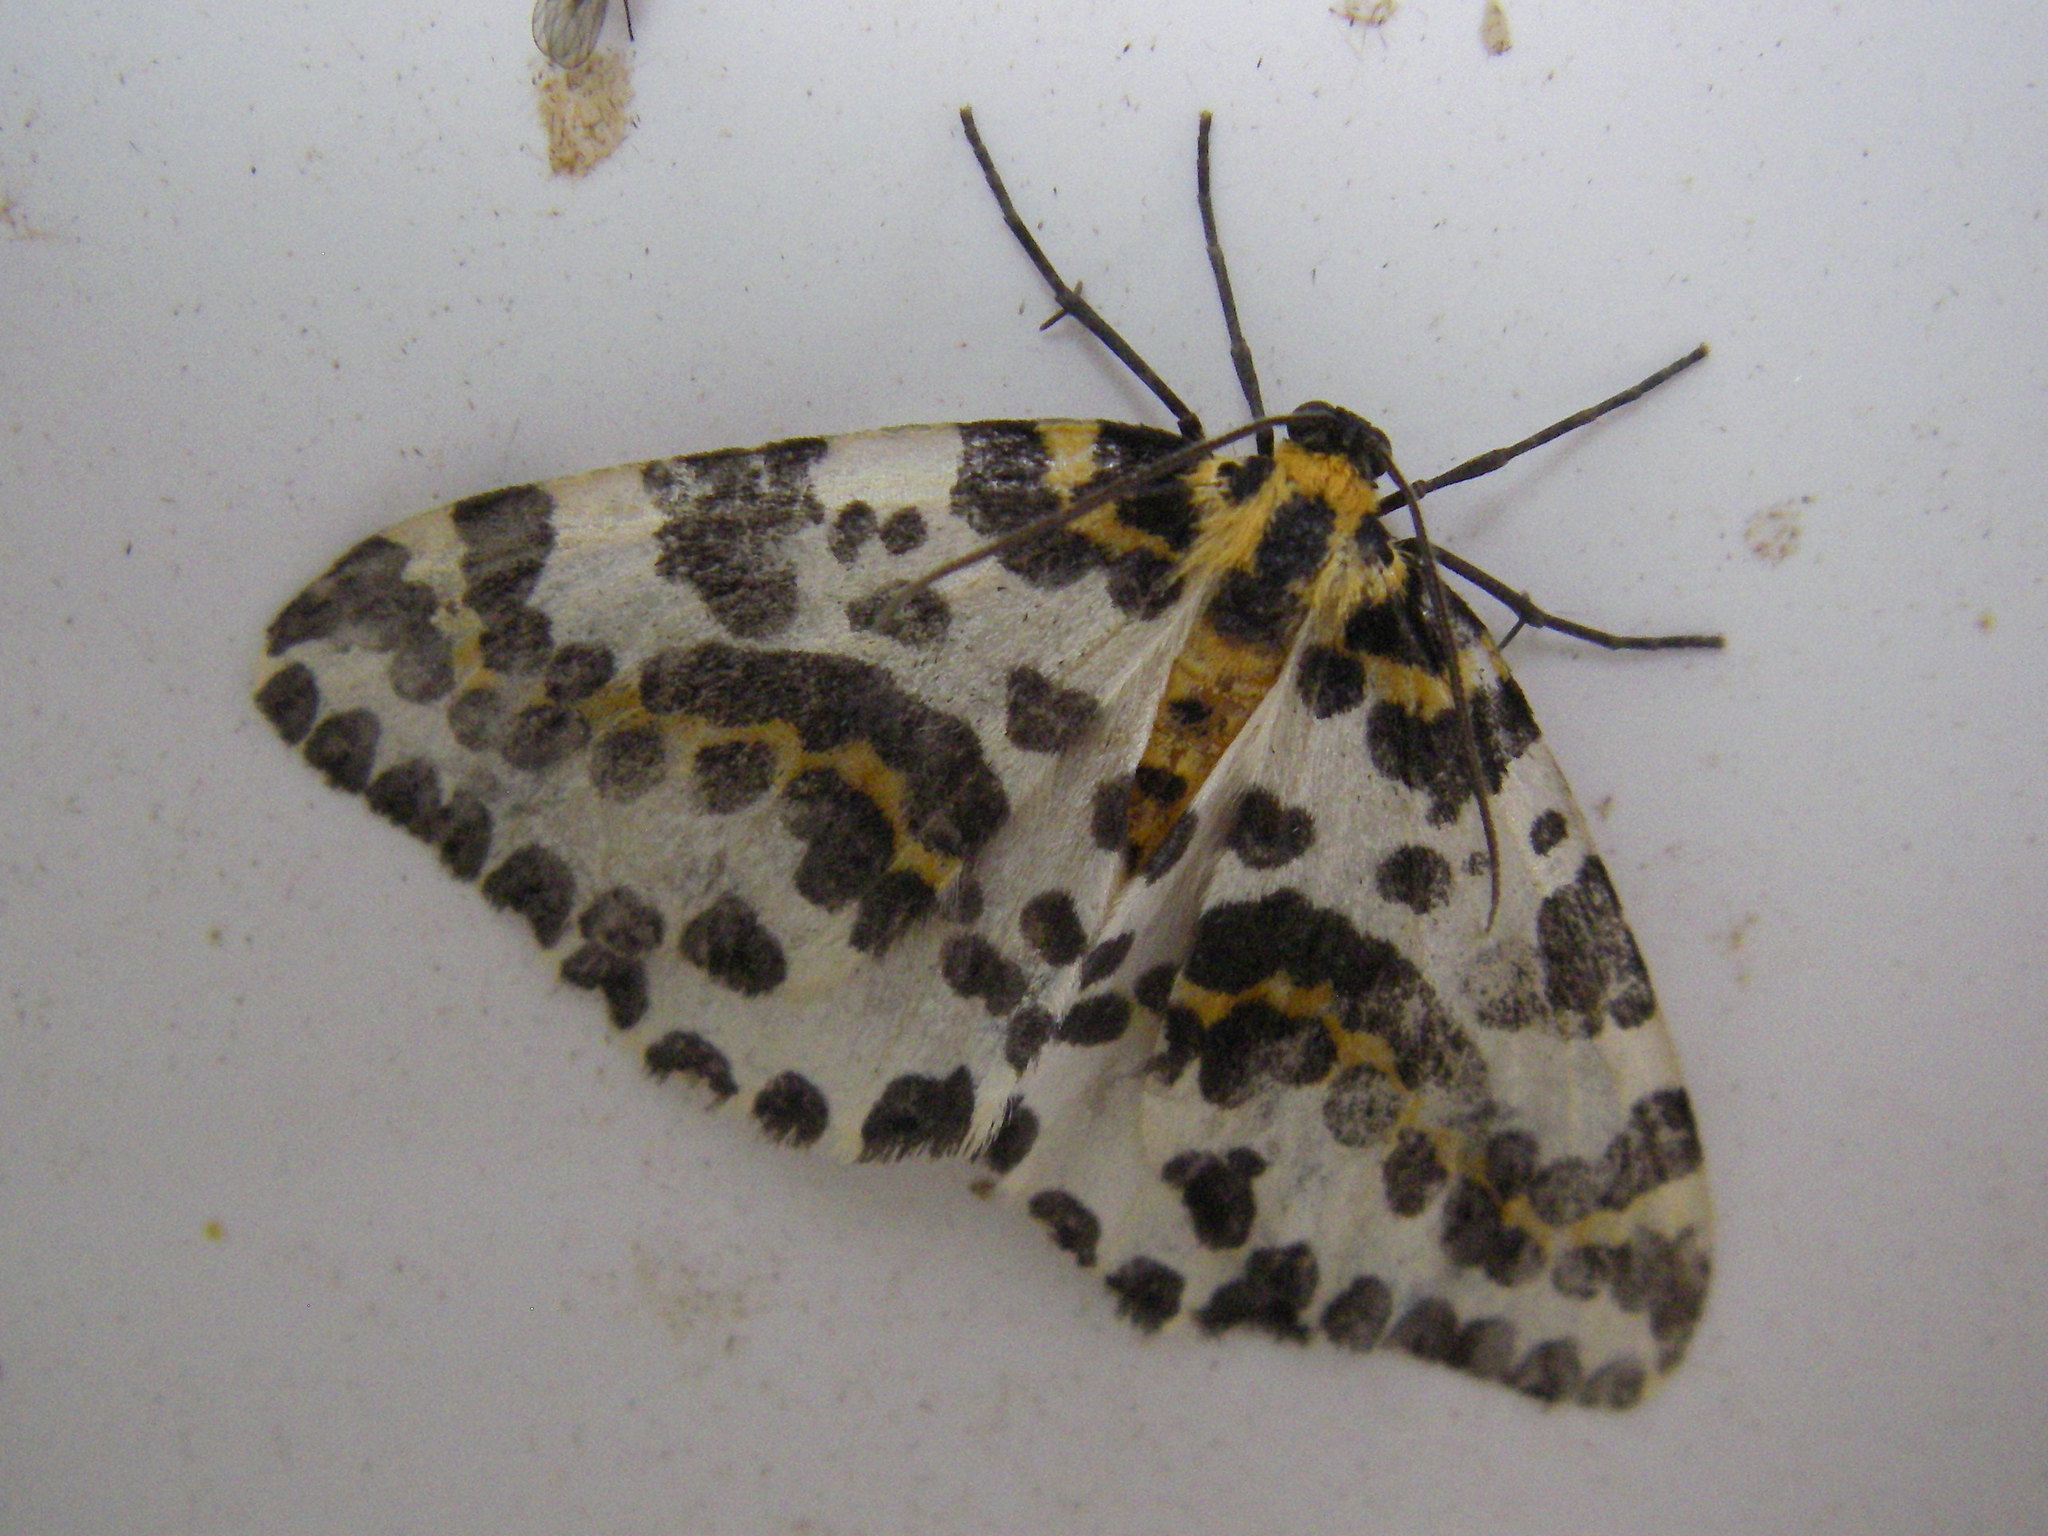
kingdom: Animalia
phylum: Arthropoda
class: Insecta
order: Lepidoptera
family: Geometridae
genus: Abraxas
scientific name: Abraxas grossulariata
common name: Magpie
